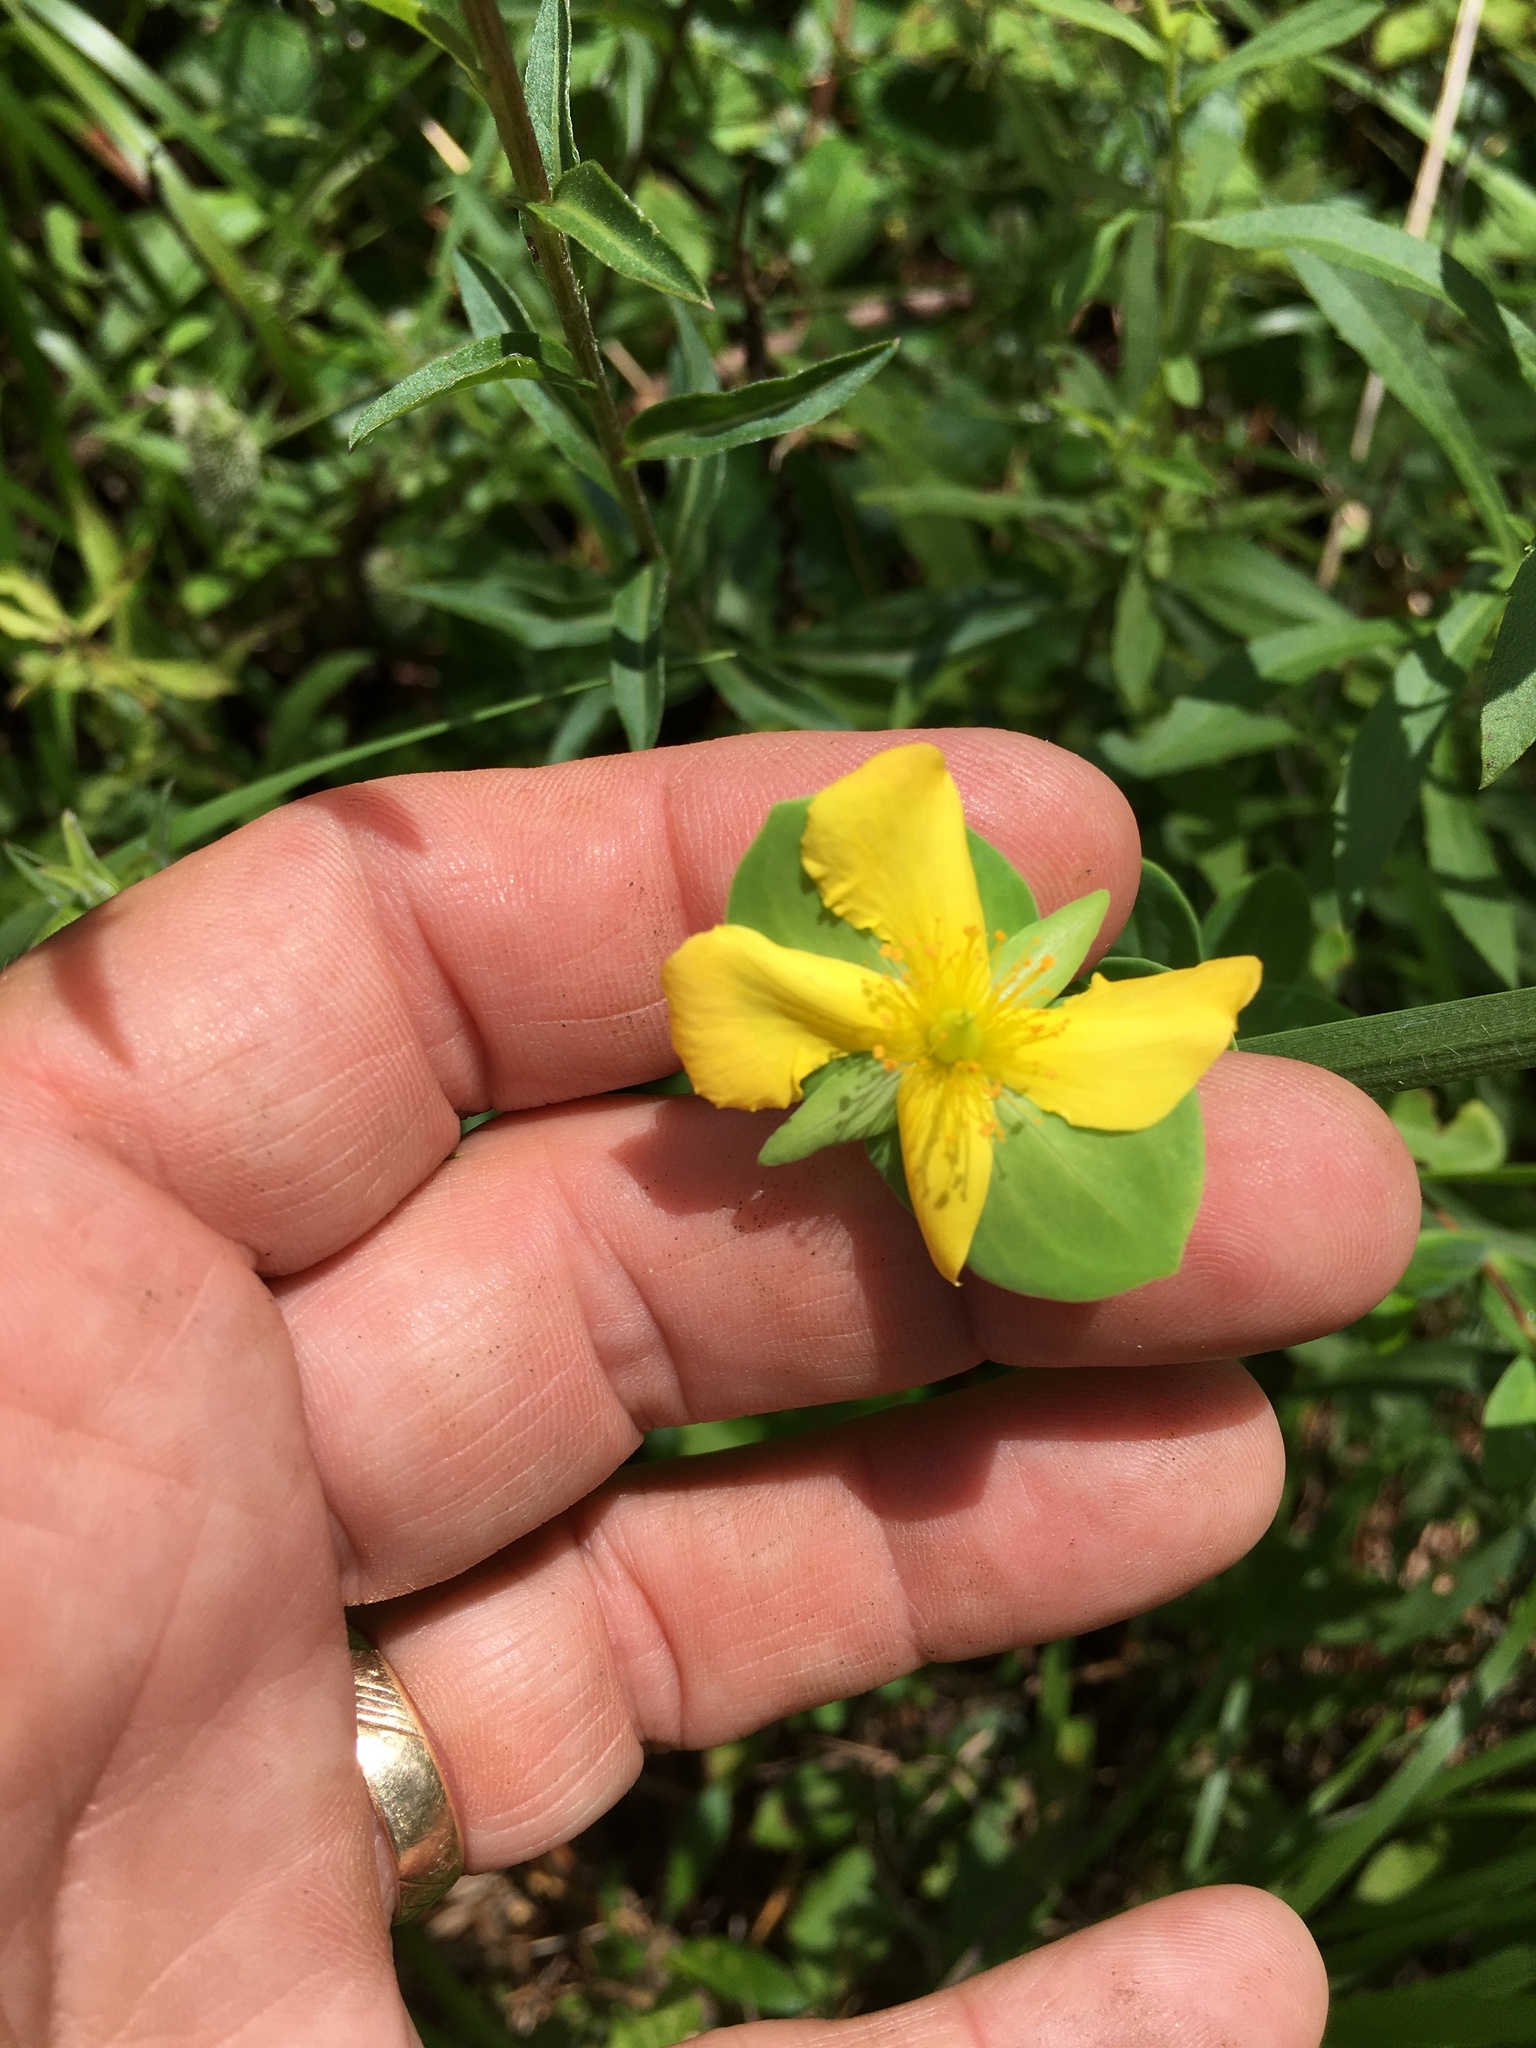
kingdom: Plantae
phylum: Tracheophyta
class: Magnoliopsida
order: Malpighiales
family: Hypericaceae
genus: Hypericum
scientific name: Hypericum crux-andreae
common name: St.-peter's-wort
